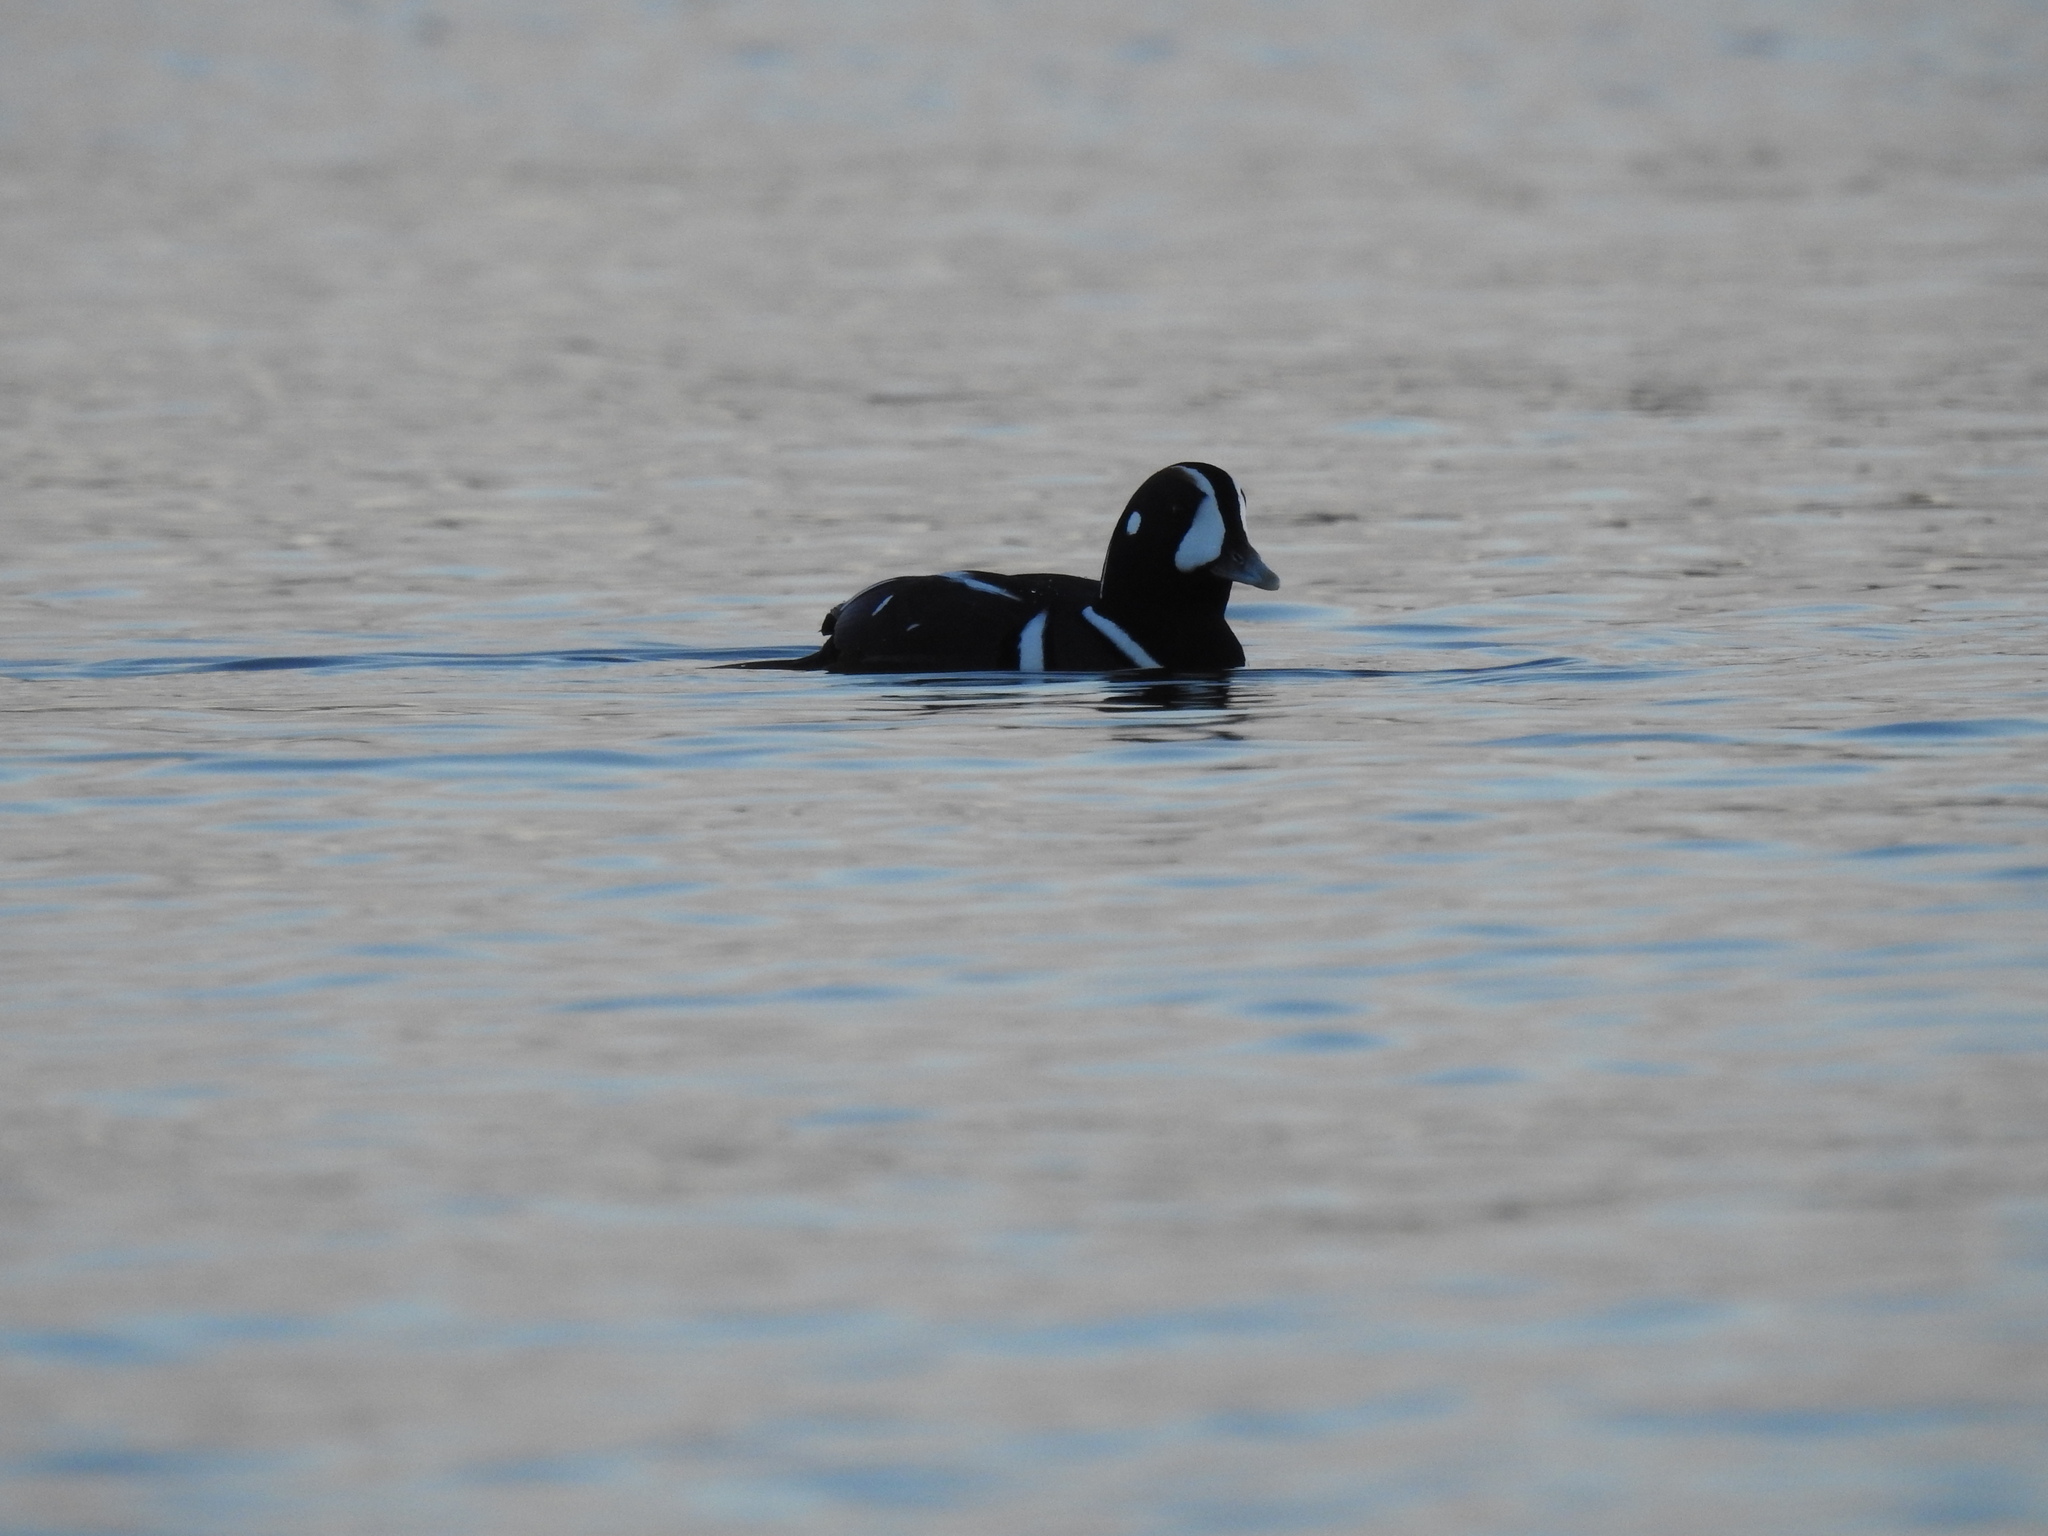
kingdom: Animalia
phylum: Chordata
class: Aves
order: Anseriformes
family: Anatidae
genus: Histrionicus
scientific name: Histrionicus histrionicus
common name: Harlequin duck
